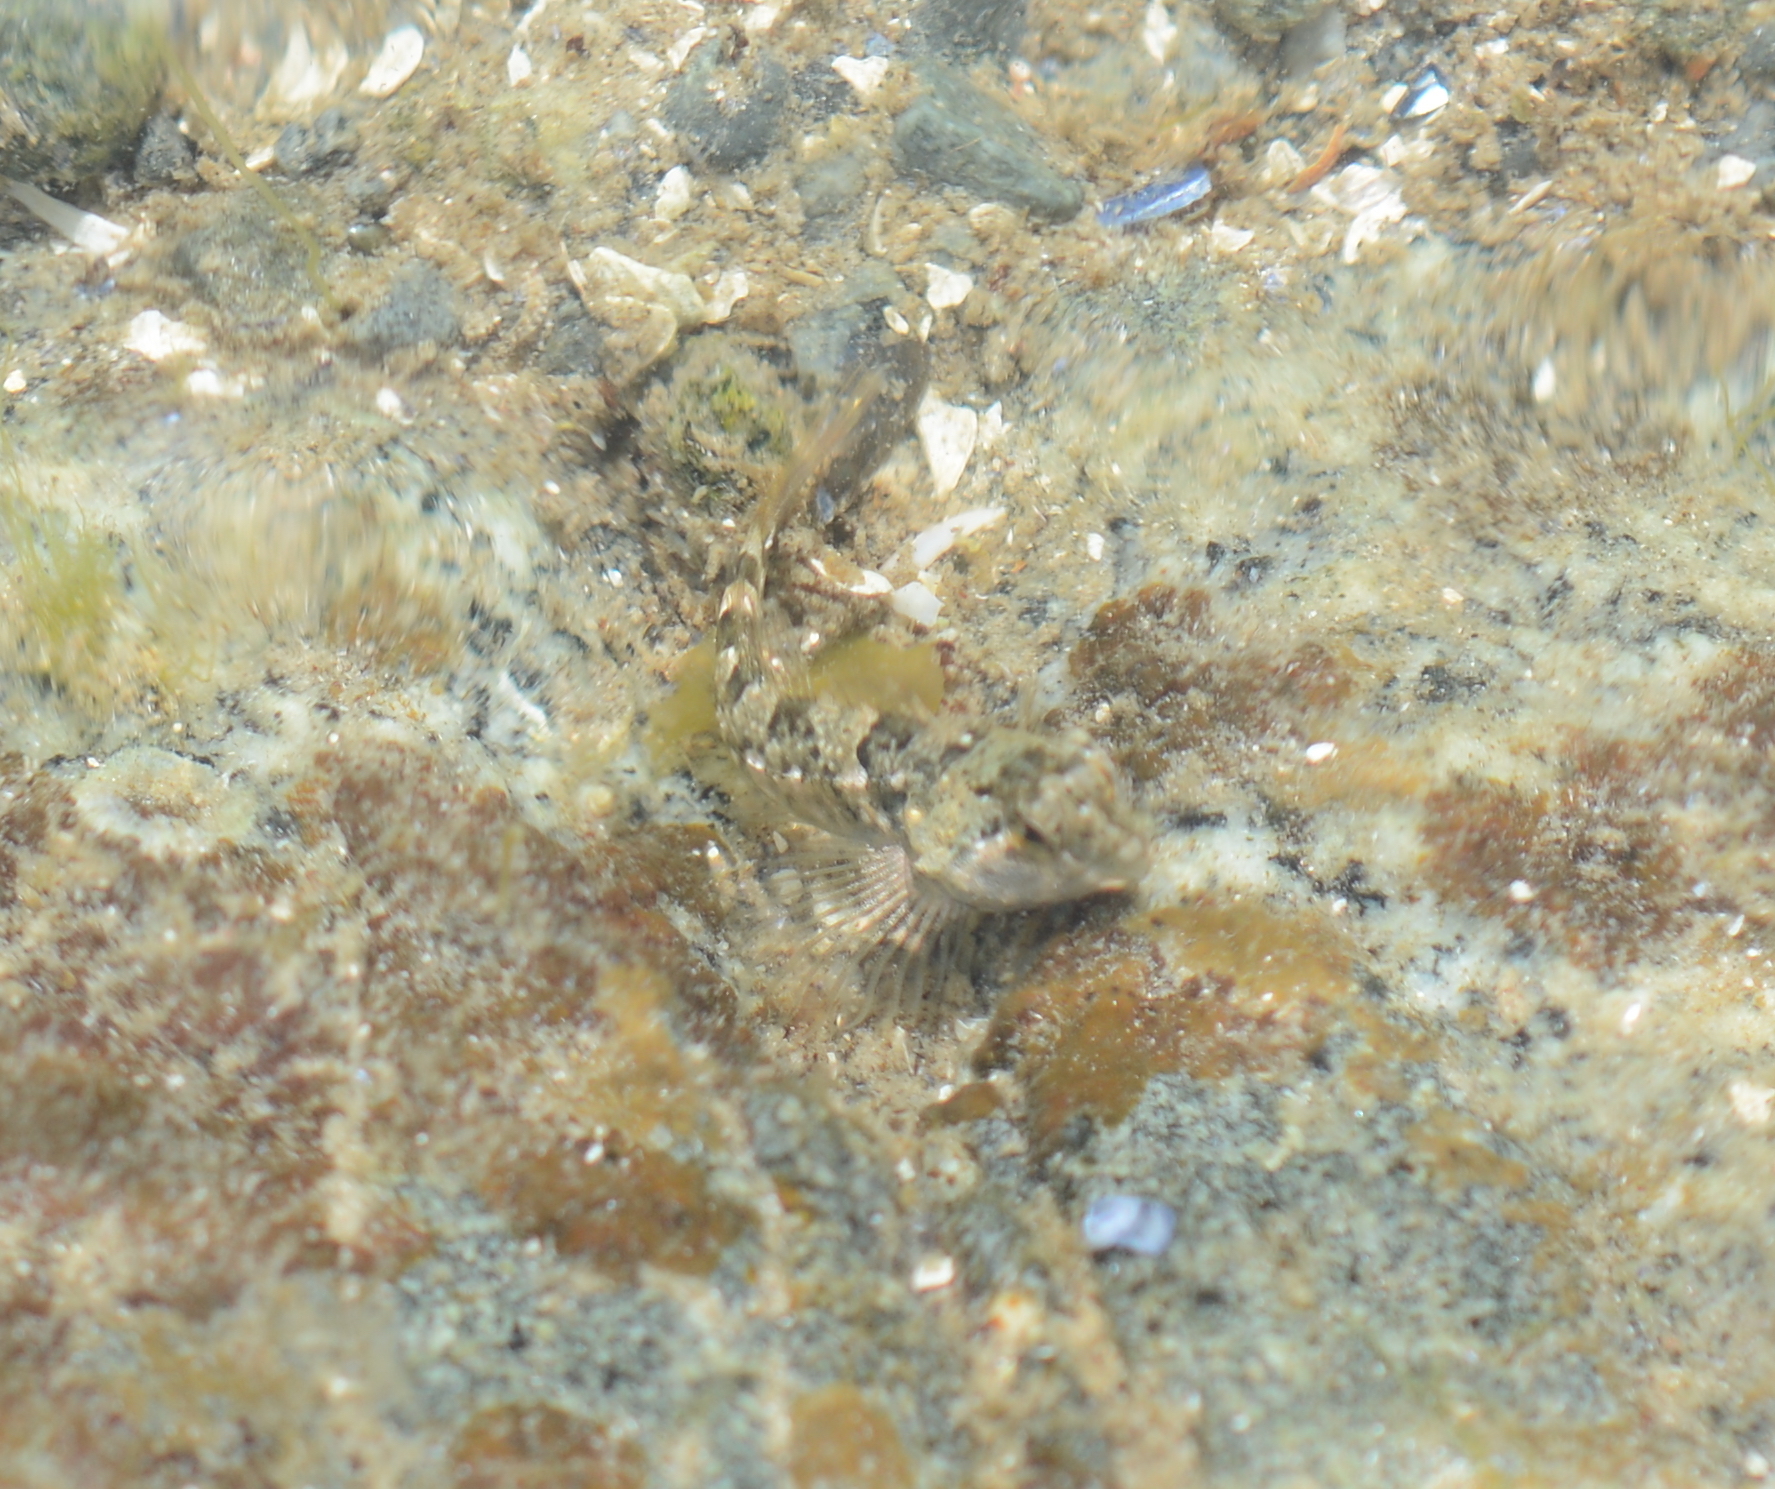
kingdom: Animalia
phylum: Chordata
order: Scorpaeniformes
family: Cottidae
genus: Oligocottus
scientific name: Oligocottus maculosus
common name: Tidepool sculpin
